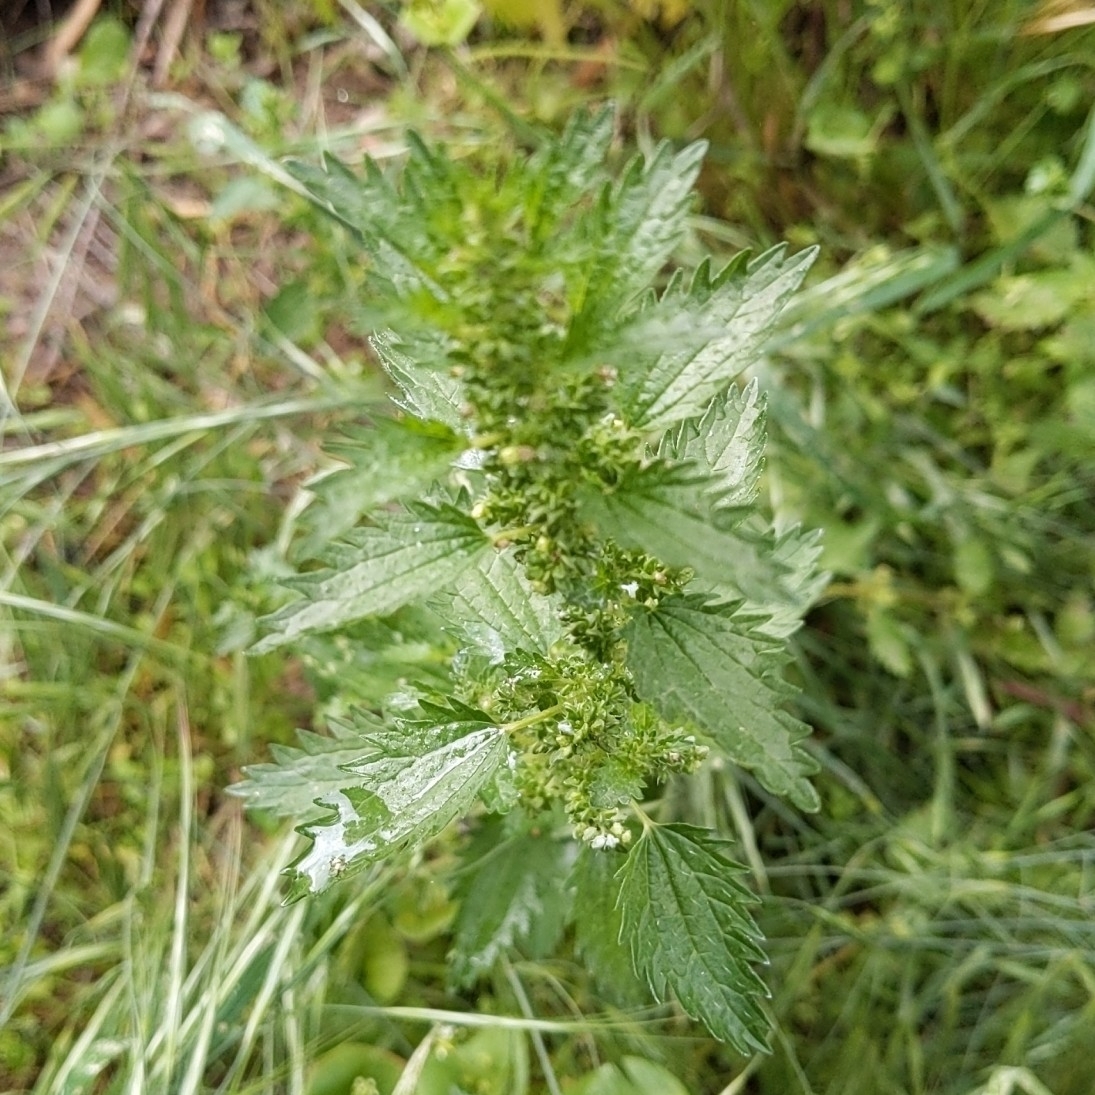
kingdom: Plantae
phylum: Tracheophyta
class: Magnoliopsida
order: Rosales
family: Urticaceae
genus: Urtica
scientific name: Urtica urens
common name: Dwarf nettle
